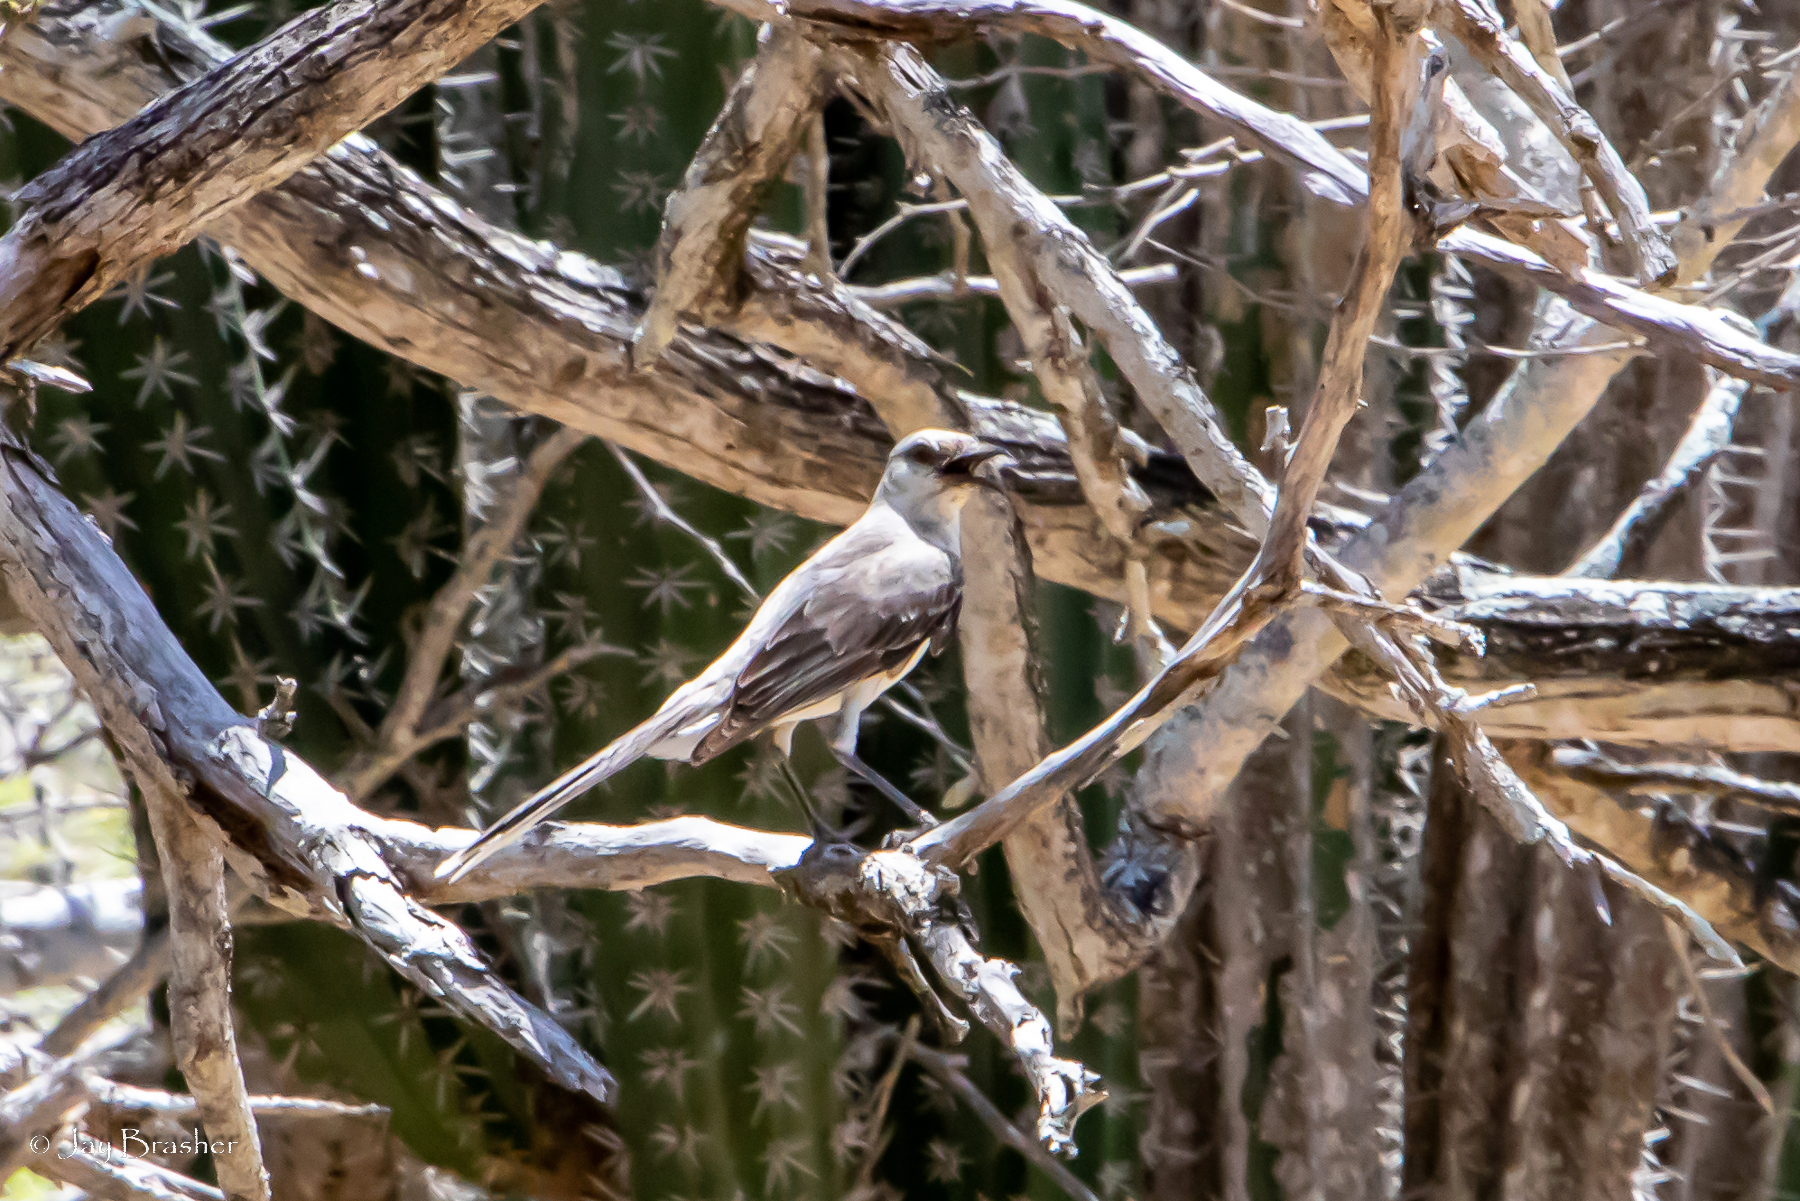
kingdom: Animalia
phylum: Chordata
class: Aves
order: Passeriformes
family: Mimidae
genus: Mimus
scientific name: Mimus gilvus
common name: Tropical mockingbird
